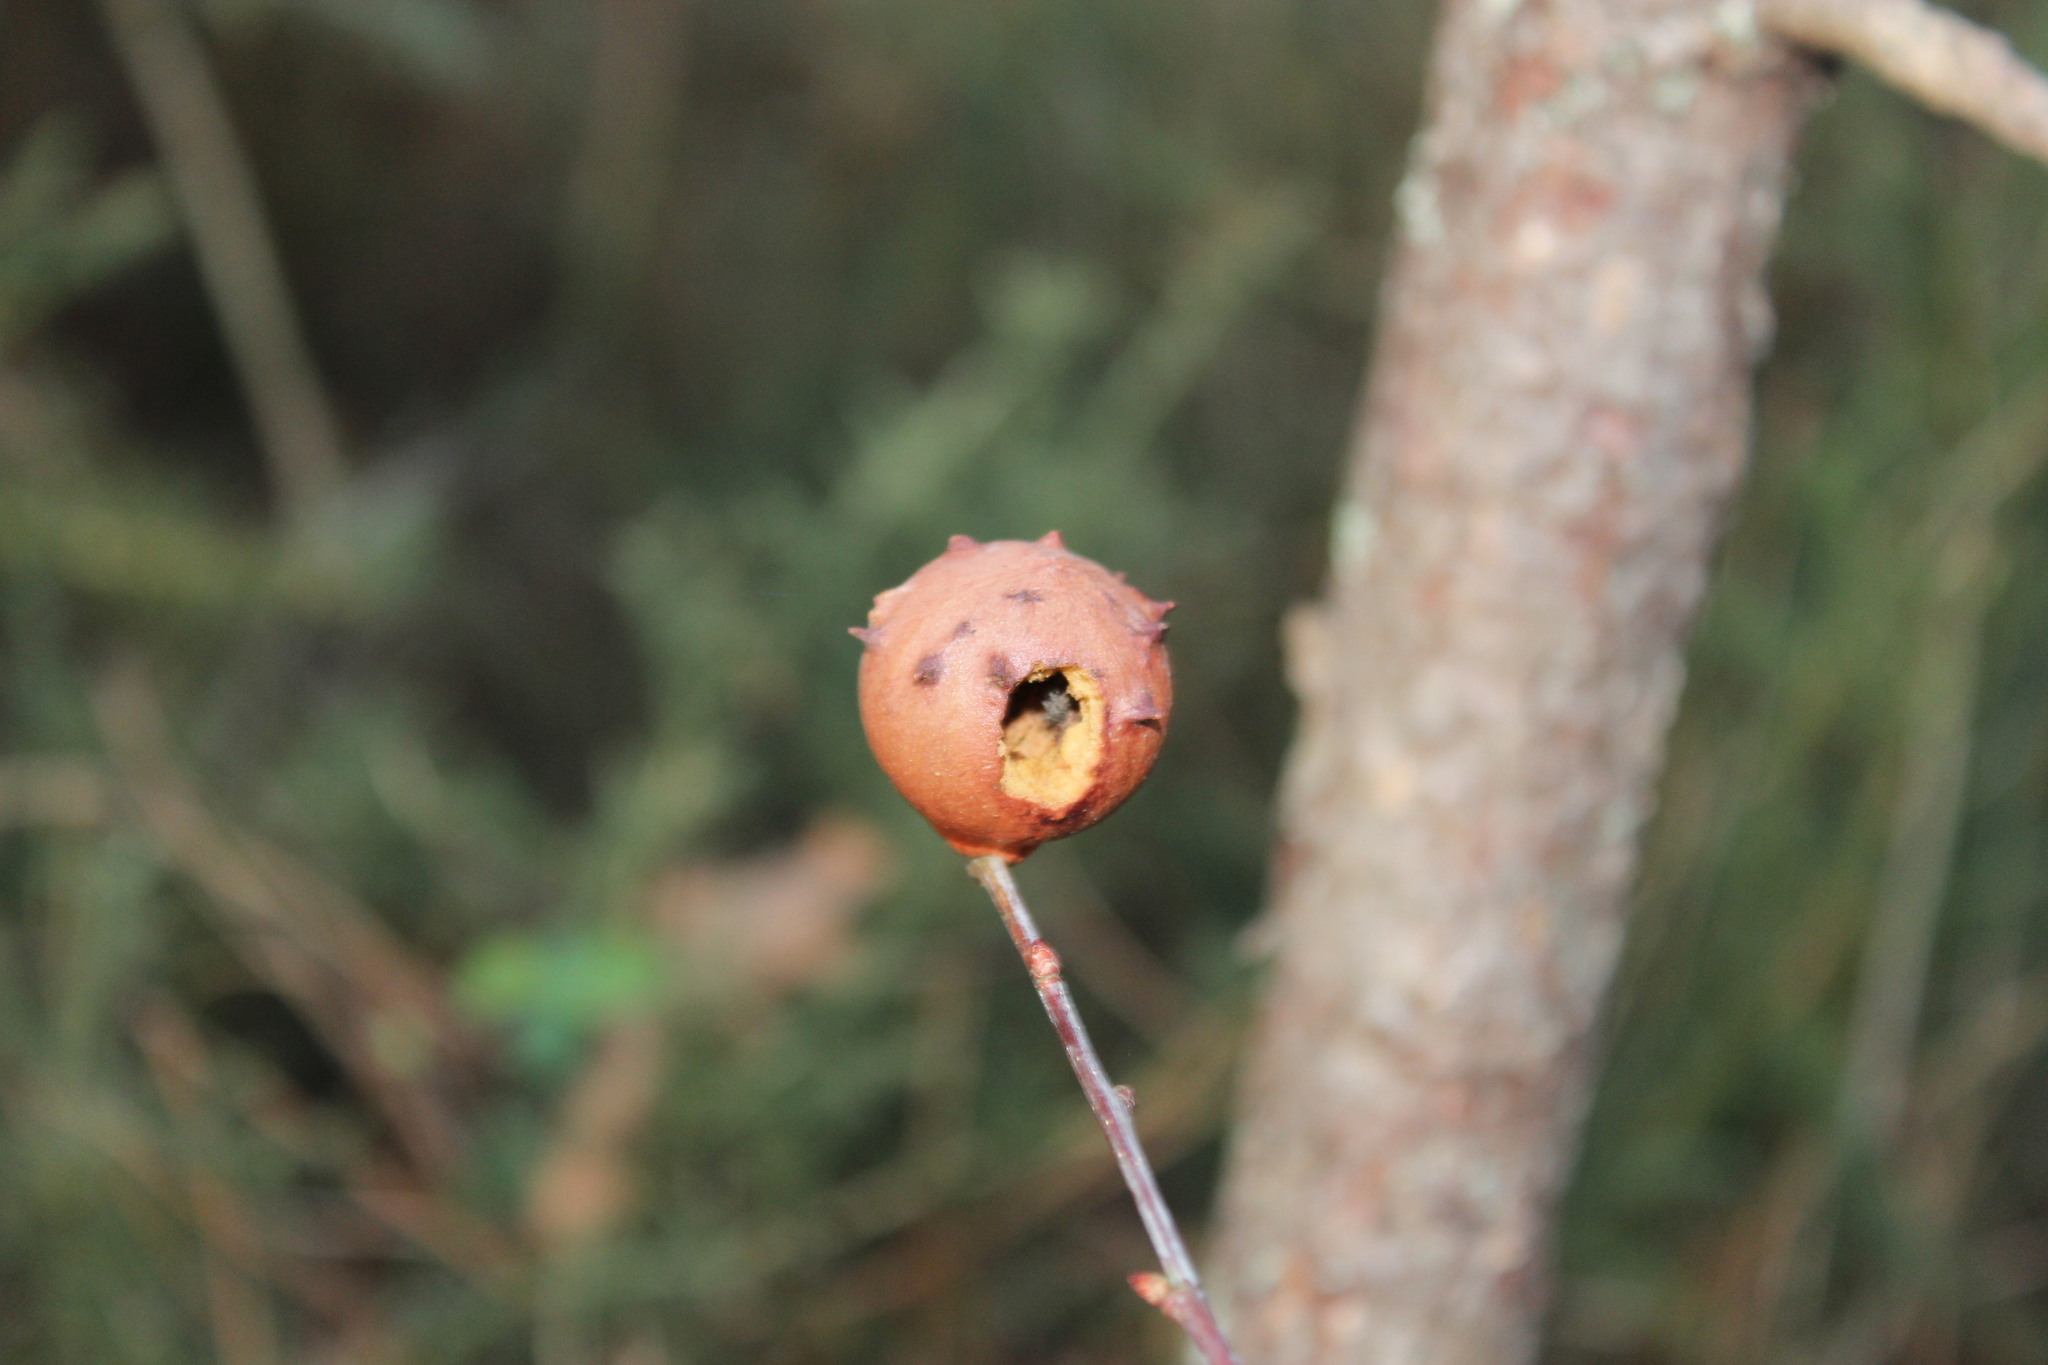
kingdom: Animalia
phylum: Arthropoda
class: Insecta
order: Hymenoptera
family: Cynipidae
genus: Andricus
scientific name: Andricus quercustozae
